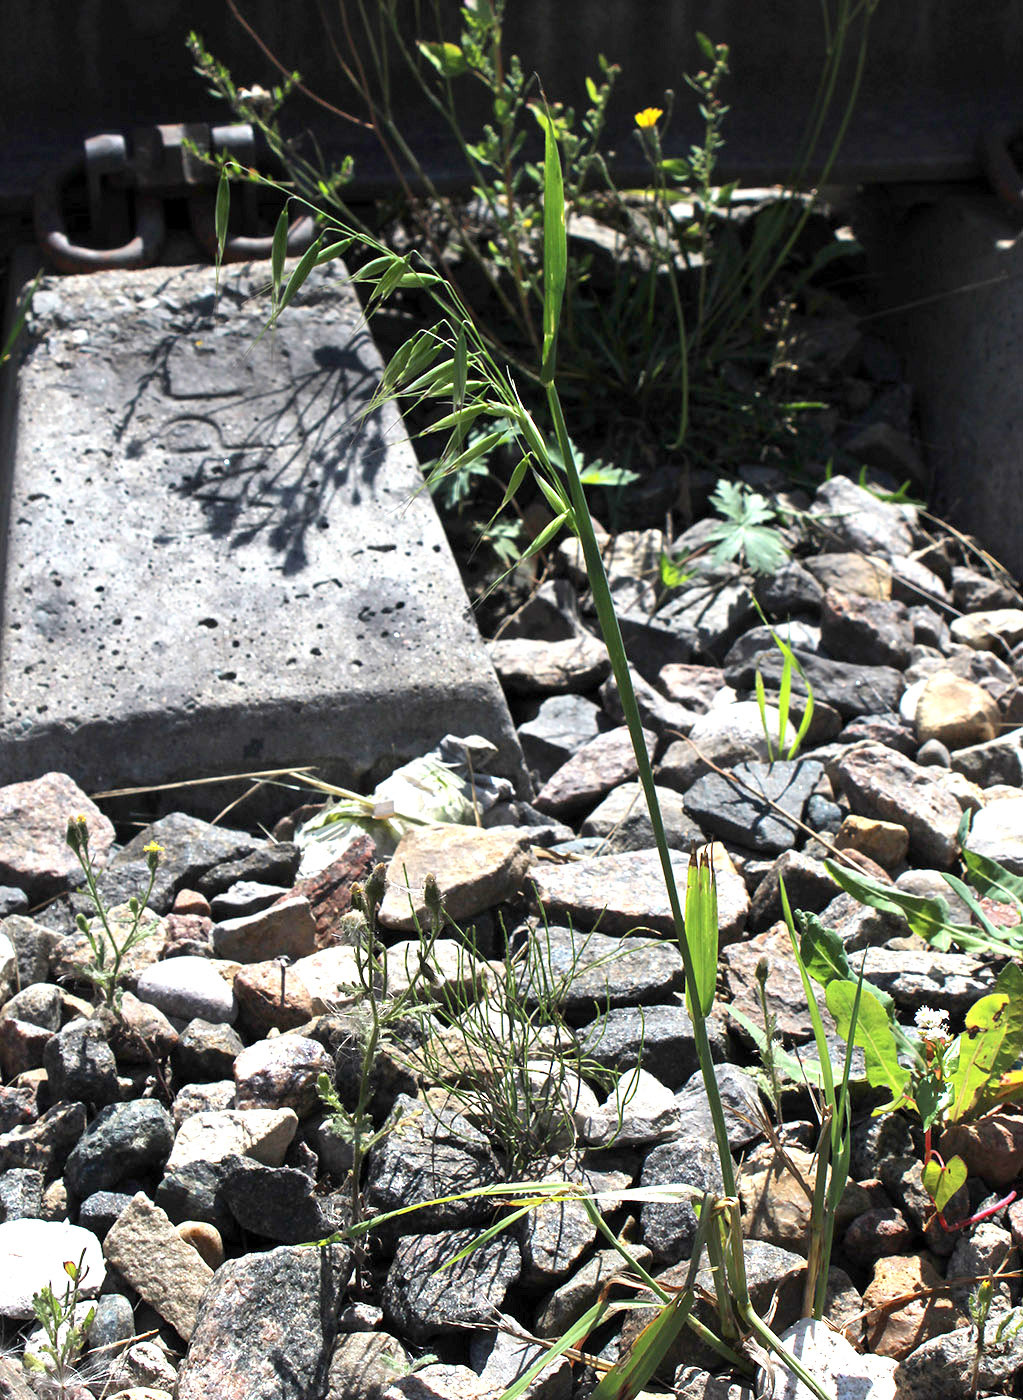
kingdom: Plantae
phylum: Tracheophyta
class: Liliopsida
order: Poales
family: Poaceae
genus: Avena
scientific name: Avena fatua
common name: Wild oat
